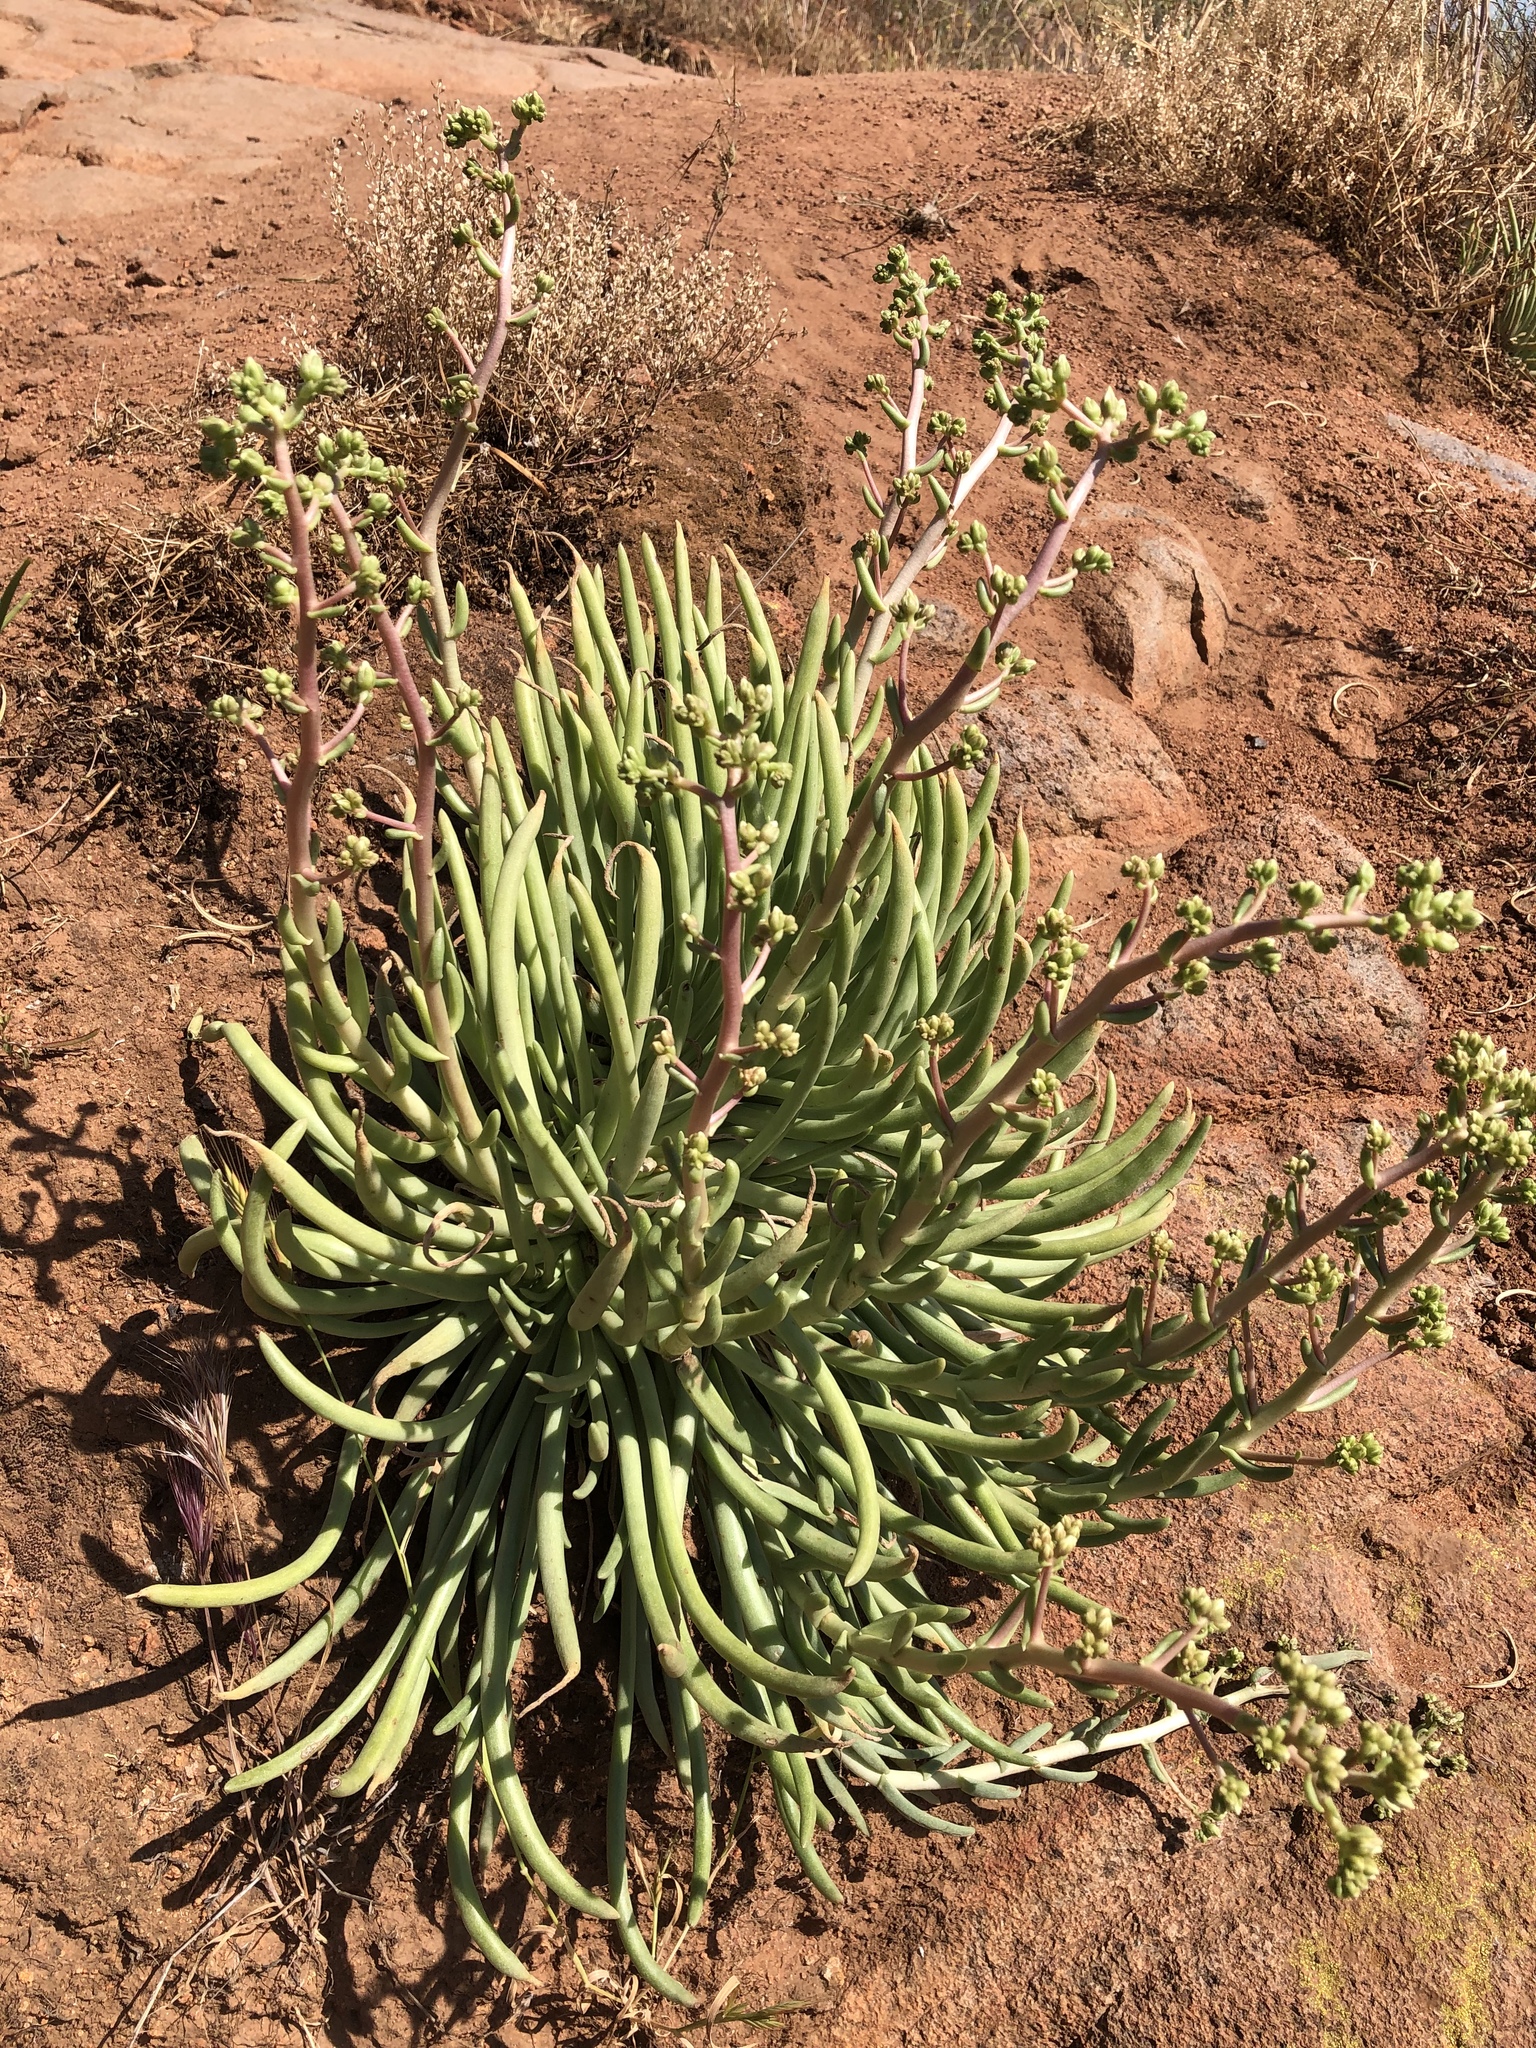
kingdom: Plantae
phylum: Tracheophyta
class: Magnoliopsida
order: Saxifragales
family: Crassulaceae
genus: Dudleya
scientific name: Dudleya edulis
